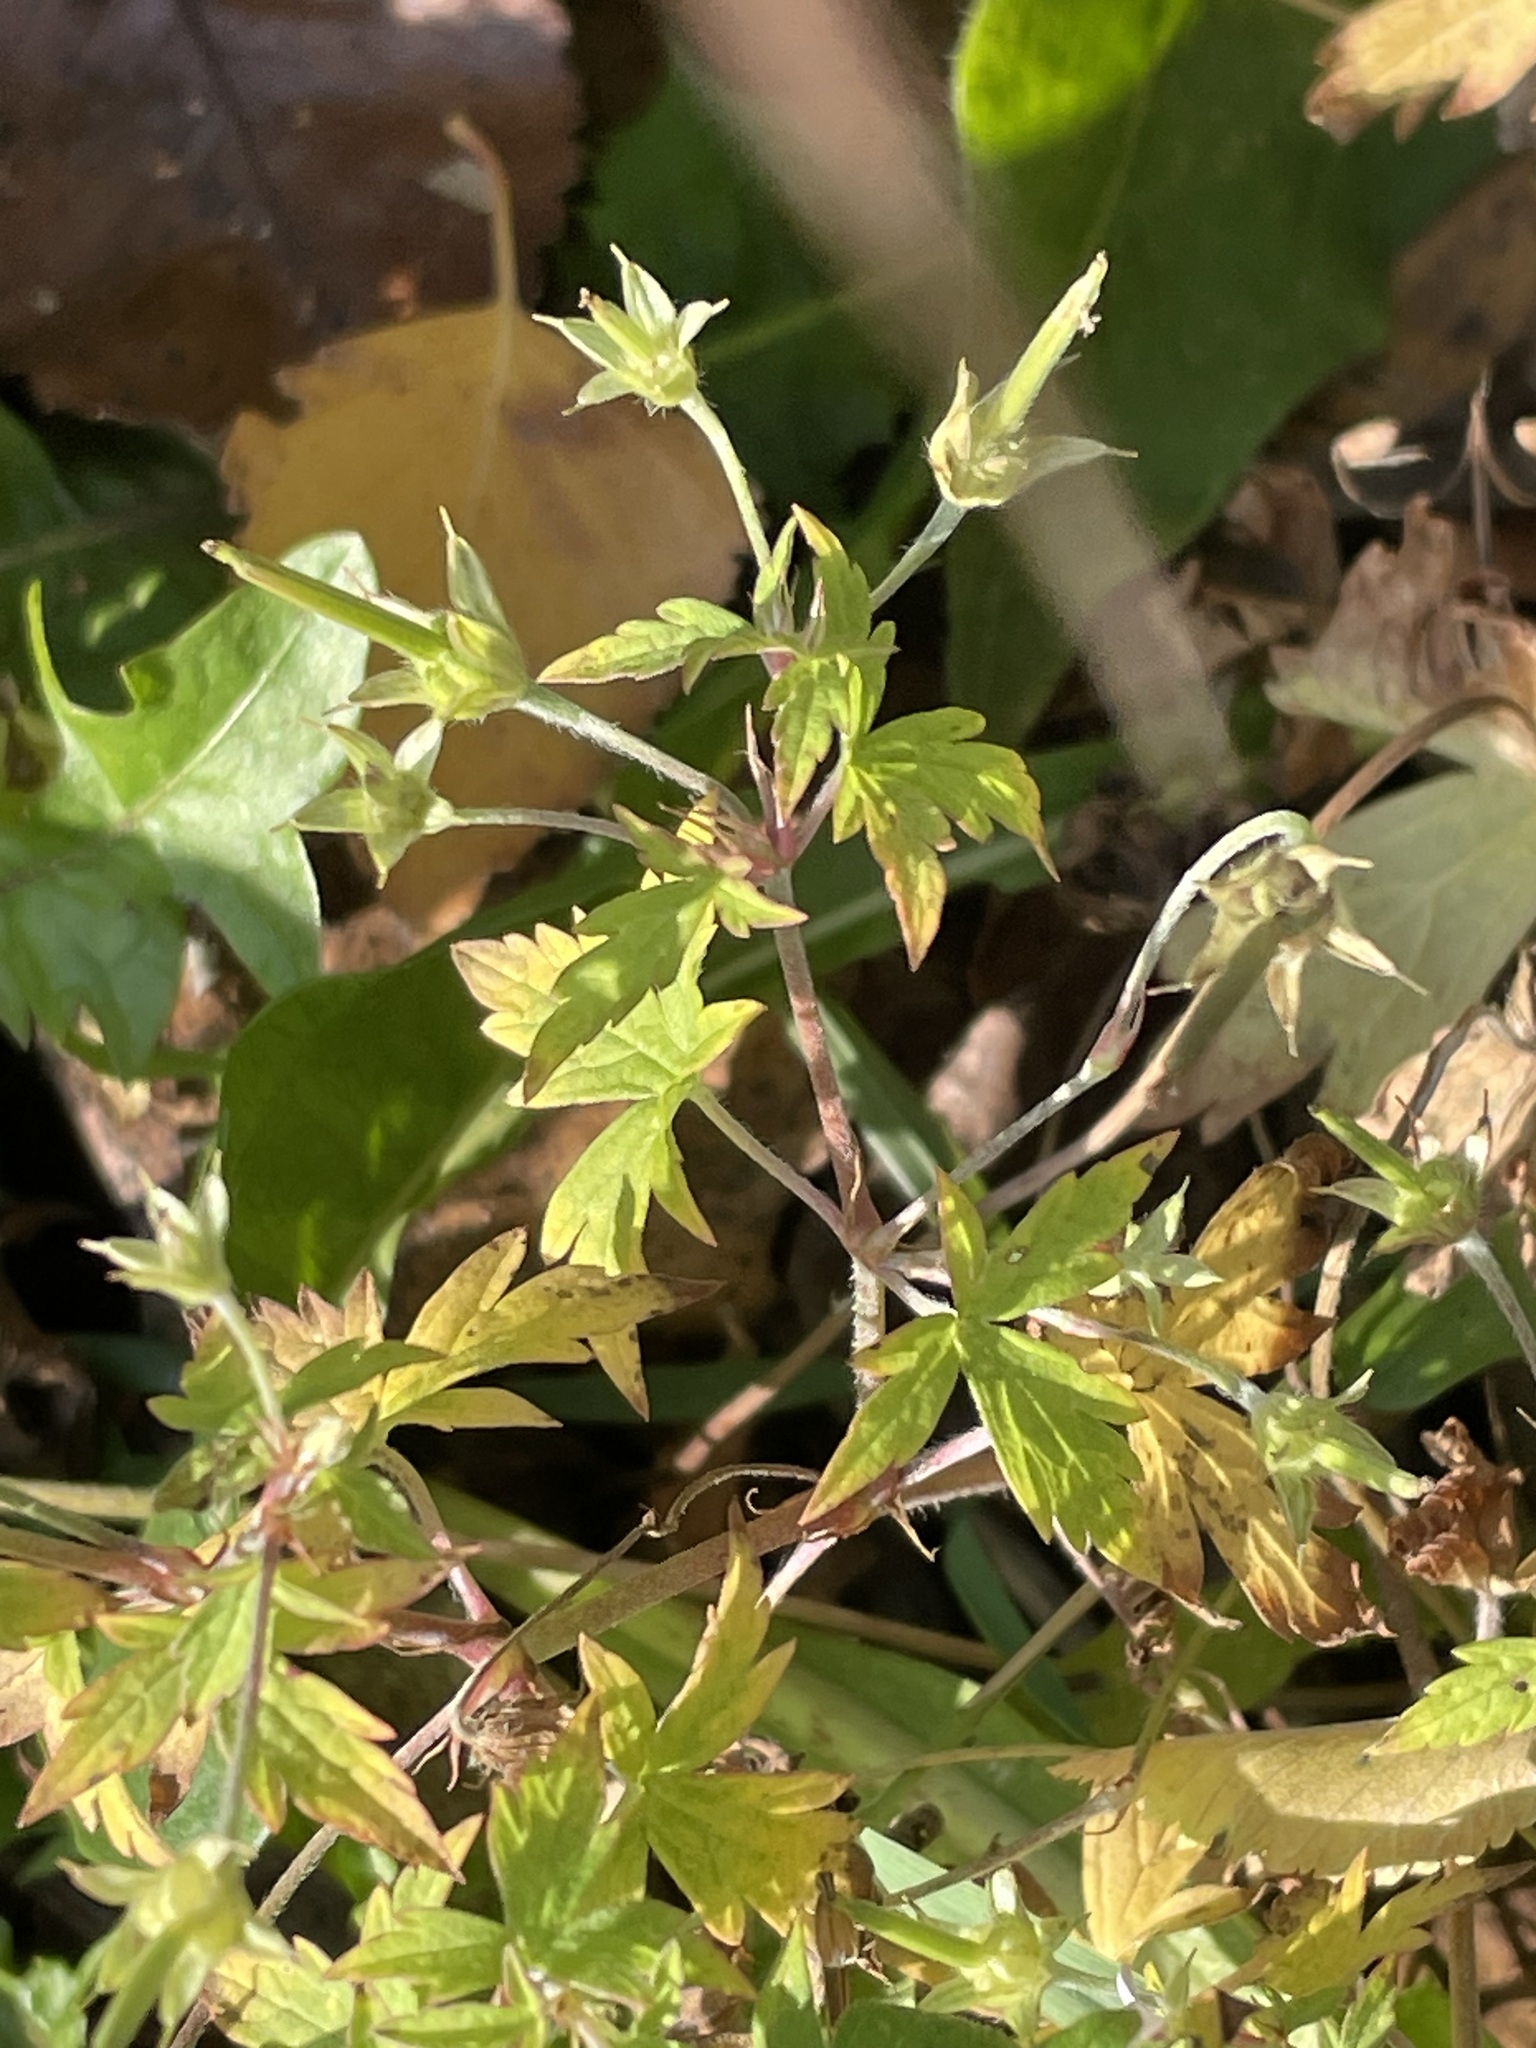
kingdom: Plantae
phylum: Tracheophyta
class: Magnoliopsida
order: Geraniales
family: Geraniaceae
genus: Geranium
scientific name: Geranium sibiricum
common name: Siberian crane's-bill
